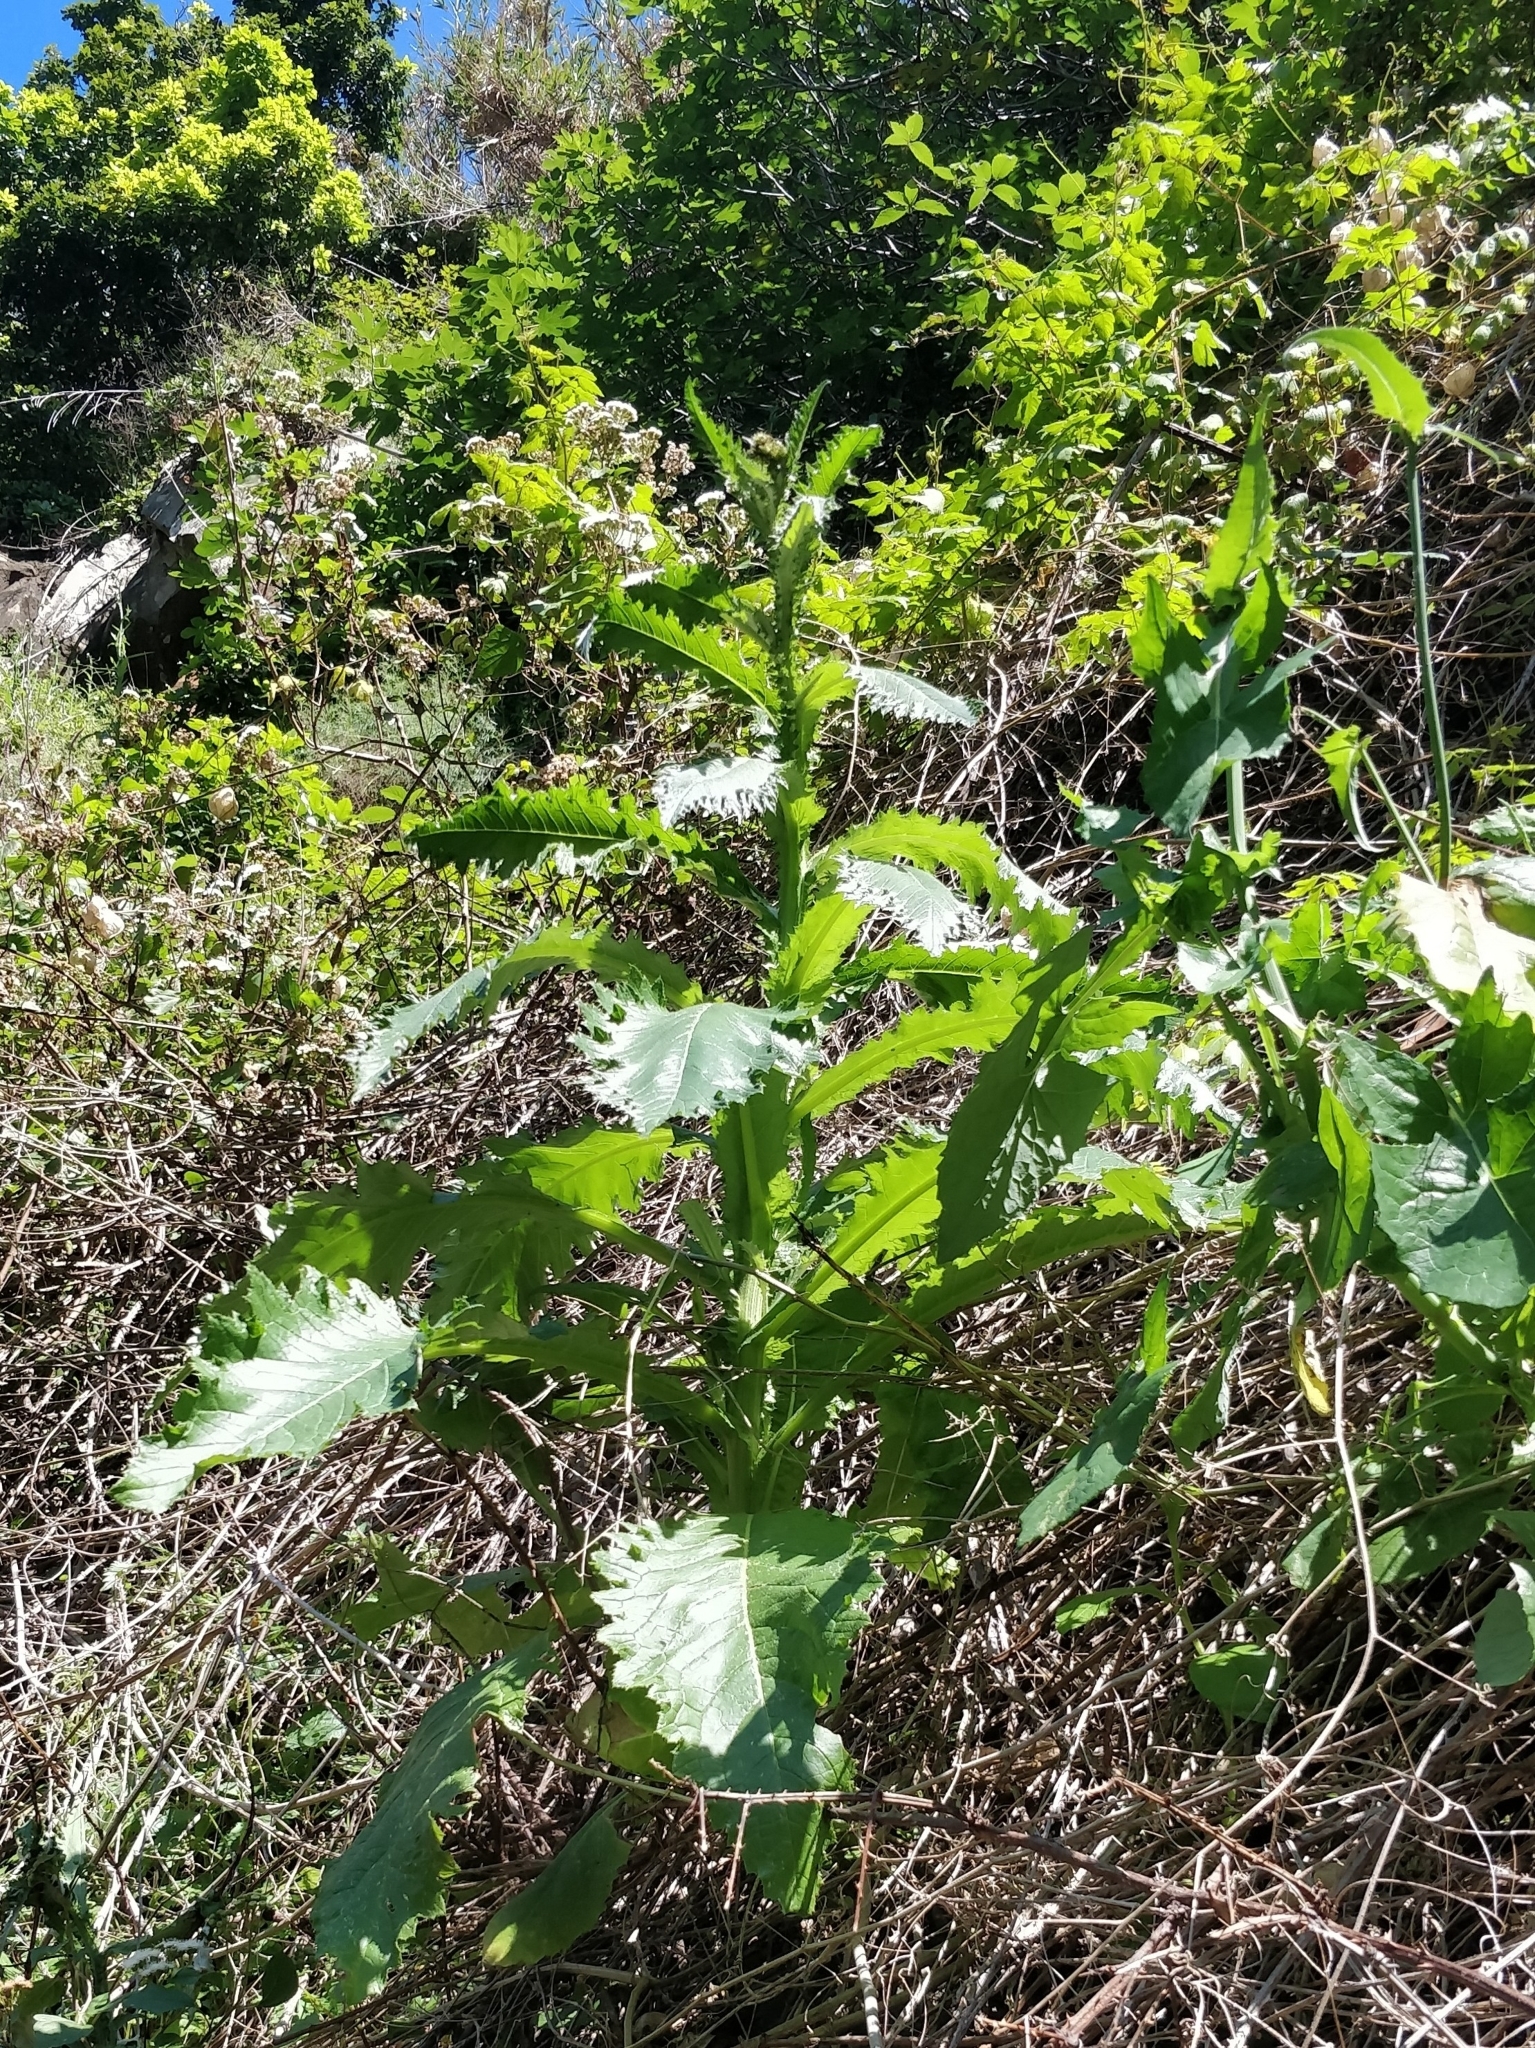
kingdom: Plantae
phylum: Tracheophyta
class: Magnoliopsida
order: Asterales
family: Asteraceae
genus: Carduus
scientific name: Carduus squarrosus
